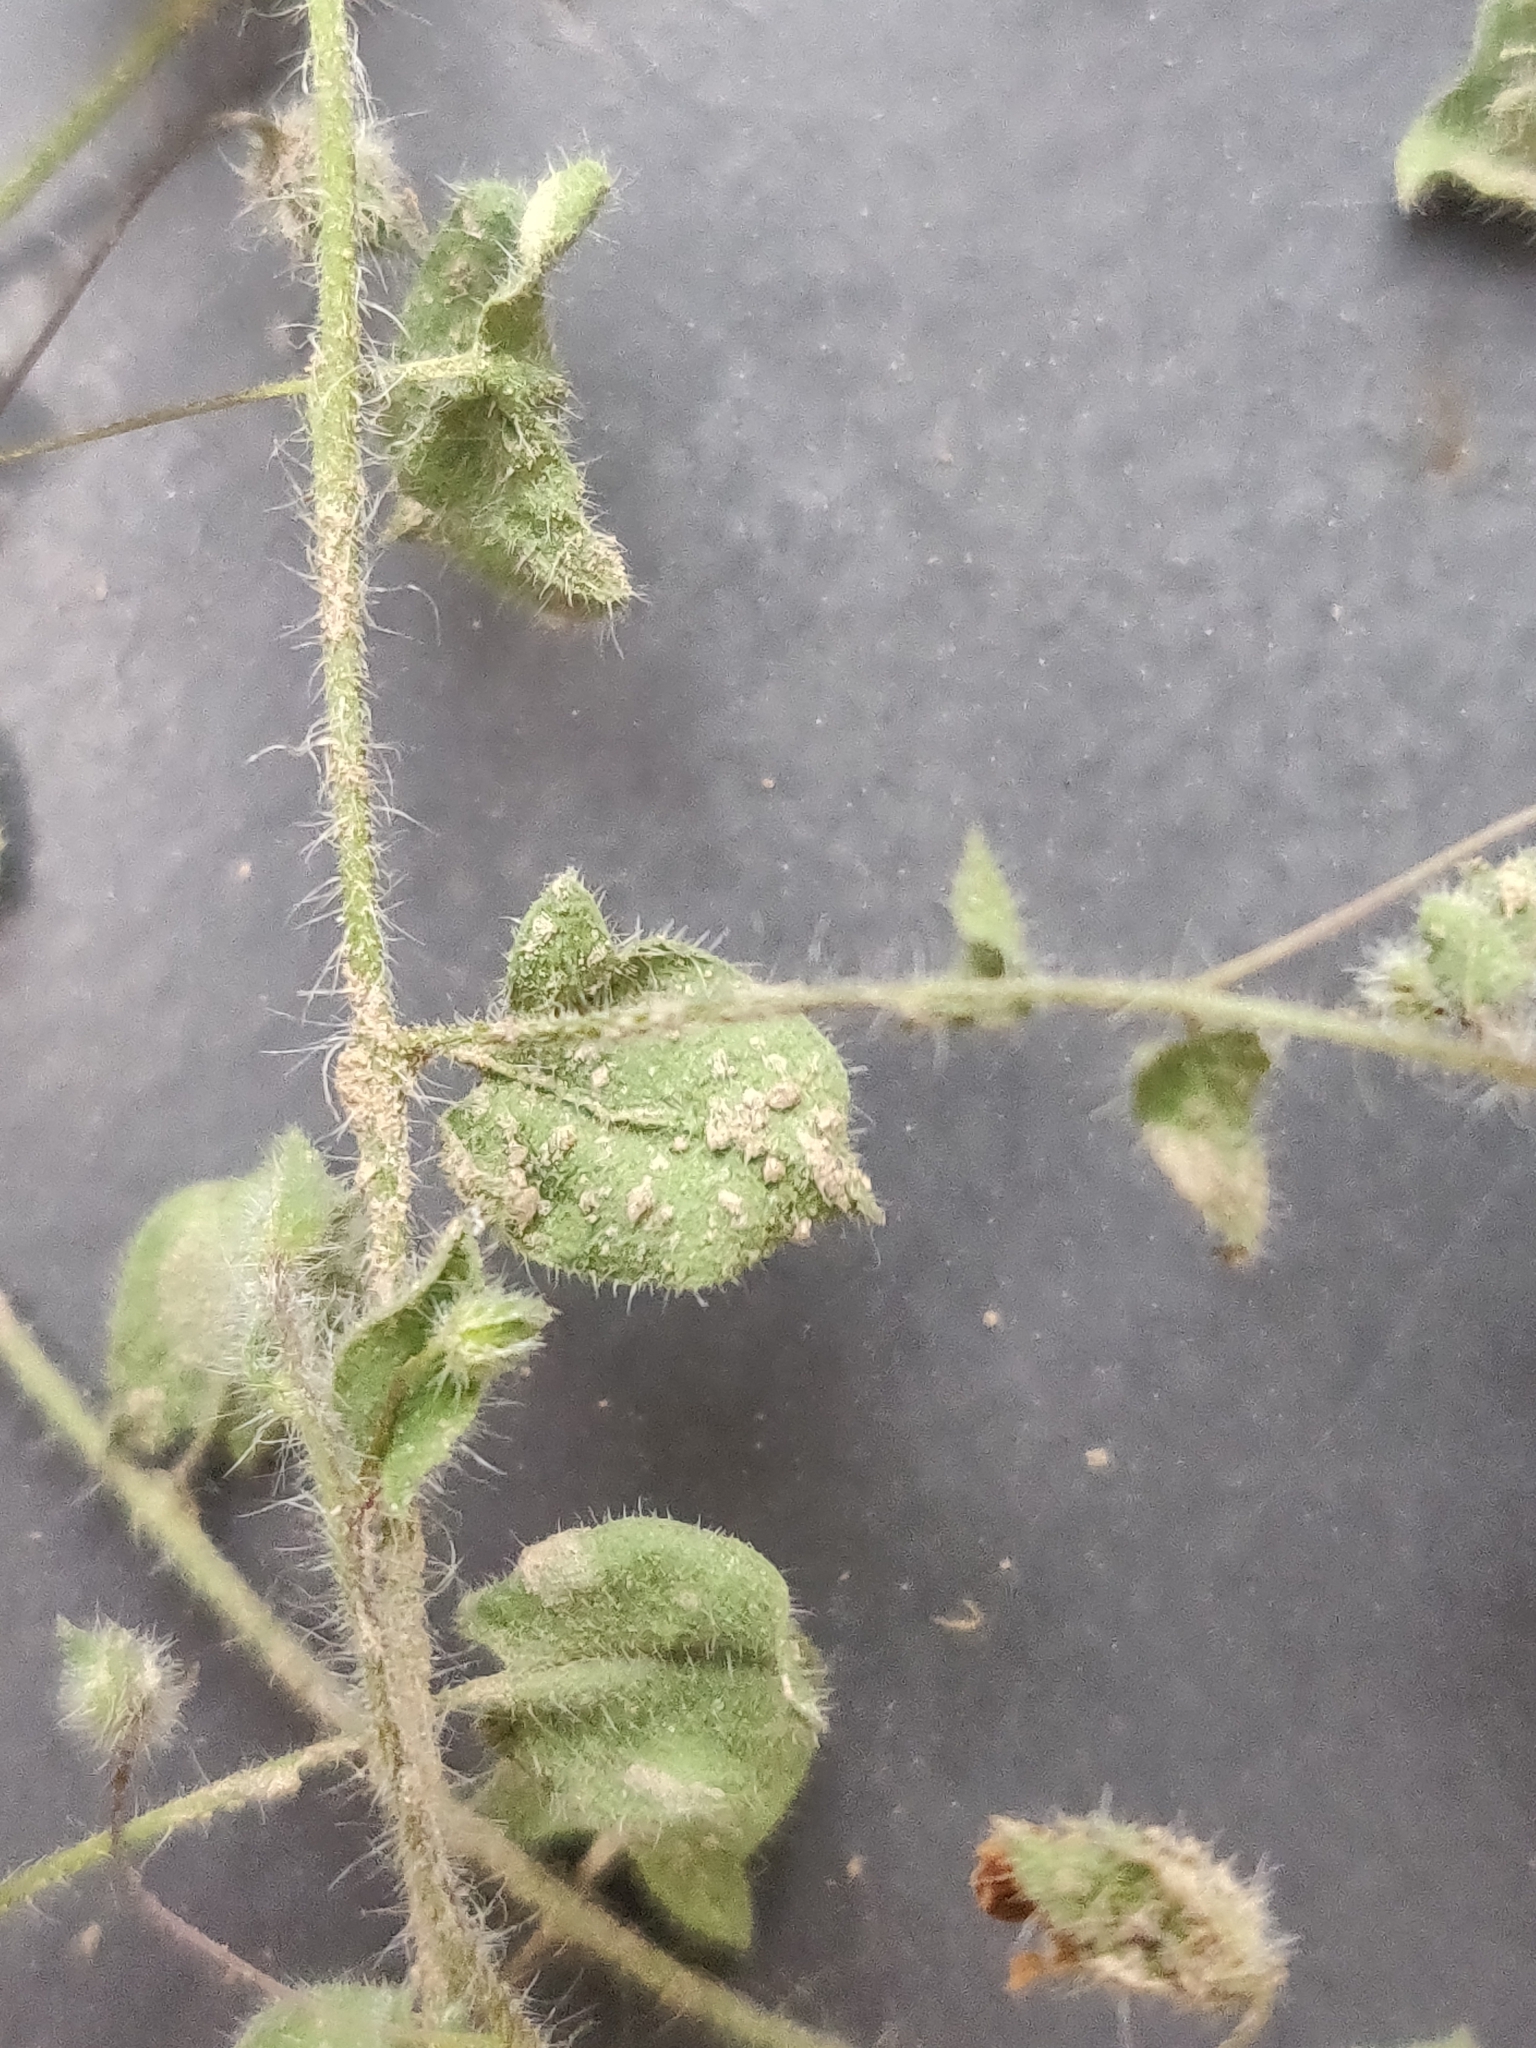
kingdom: Plantae
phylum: Tracheophyta
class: Magnoliopsida
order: Lamiales
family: Plantaginaceae
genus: Kickxia
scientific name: Kickxia elatine
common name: Sharp-leaved fluellen
